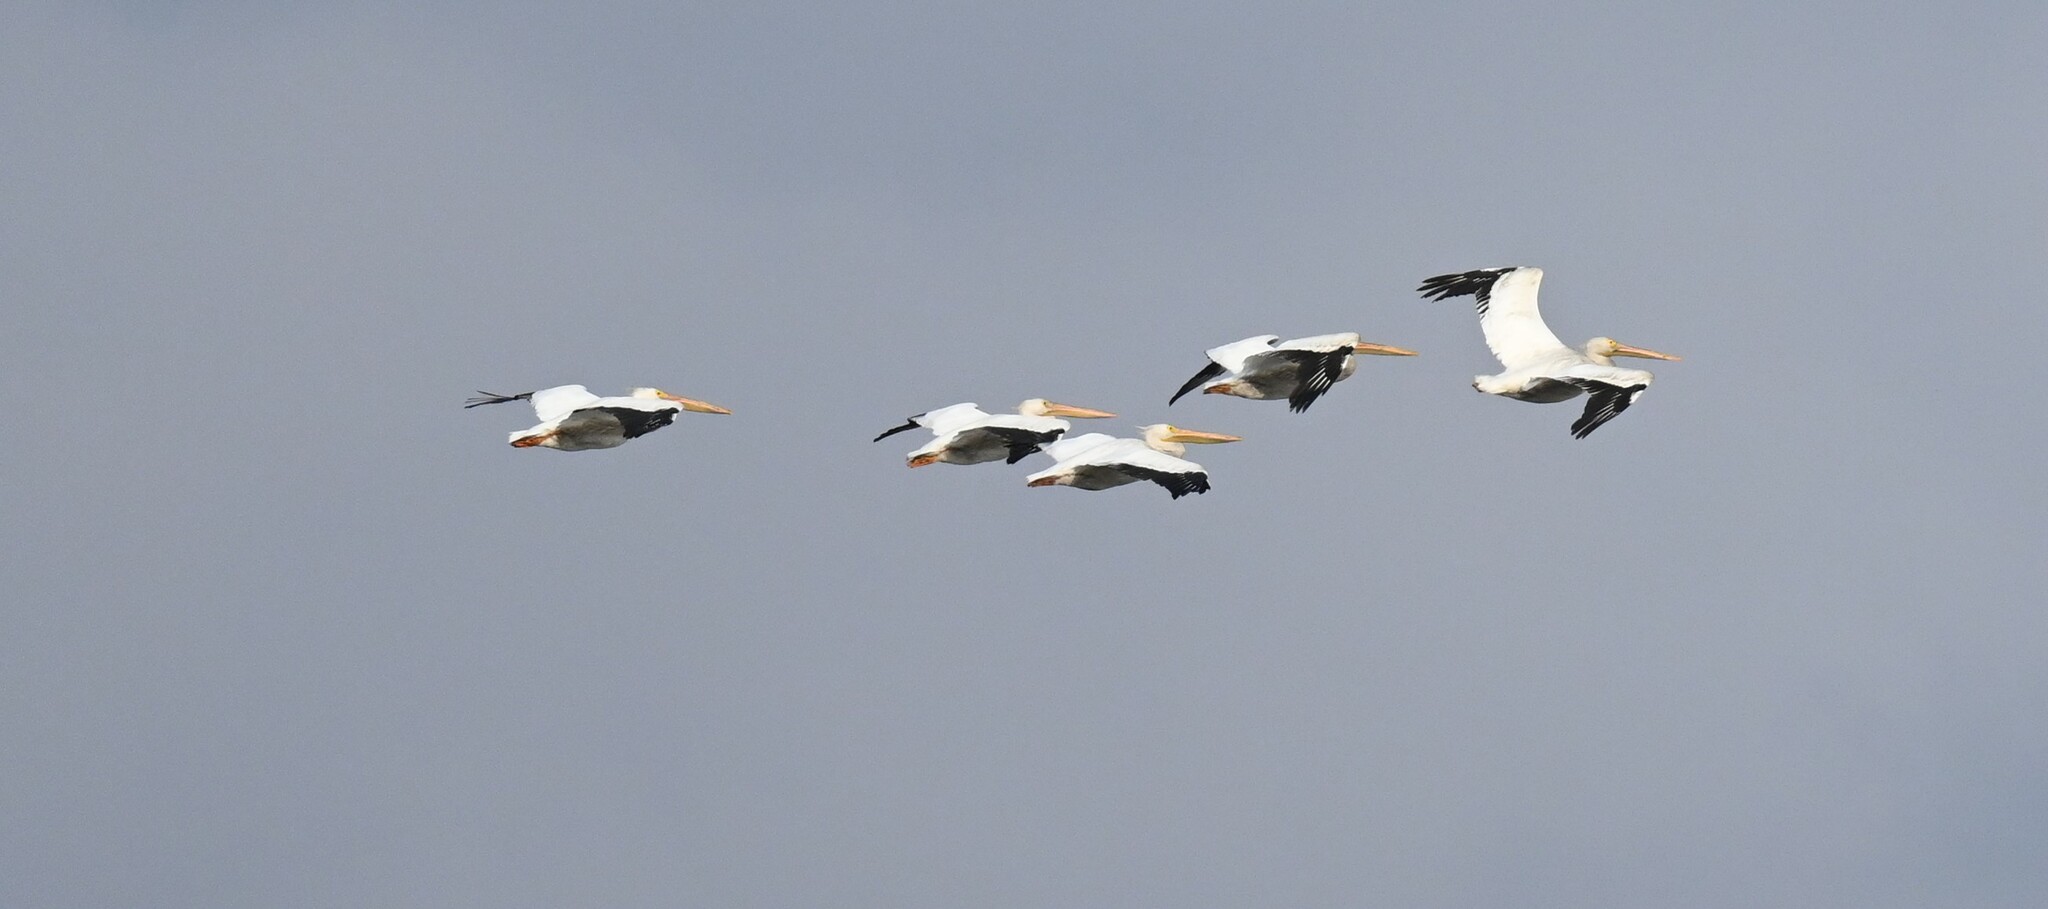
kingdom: Animalia
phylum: Chordata
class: Aves
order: Pelecaniformes
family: Pelecanidae
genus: Pelecanus
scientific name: Pelecanus erythrorhynchos
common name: American white pelican
